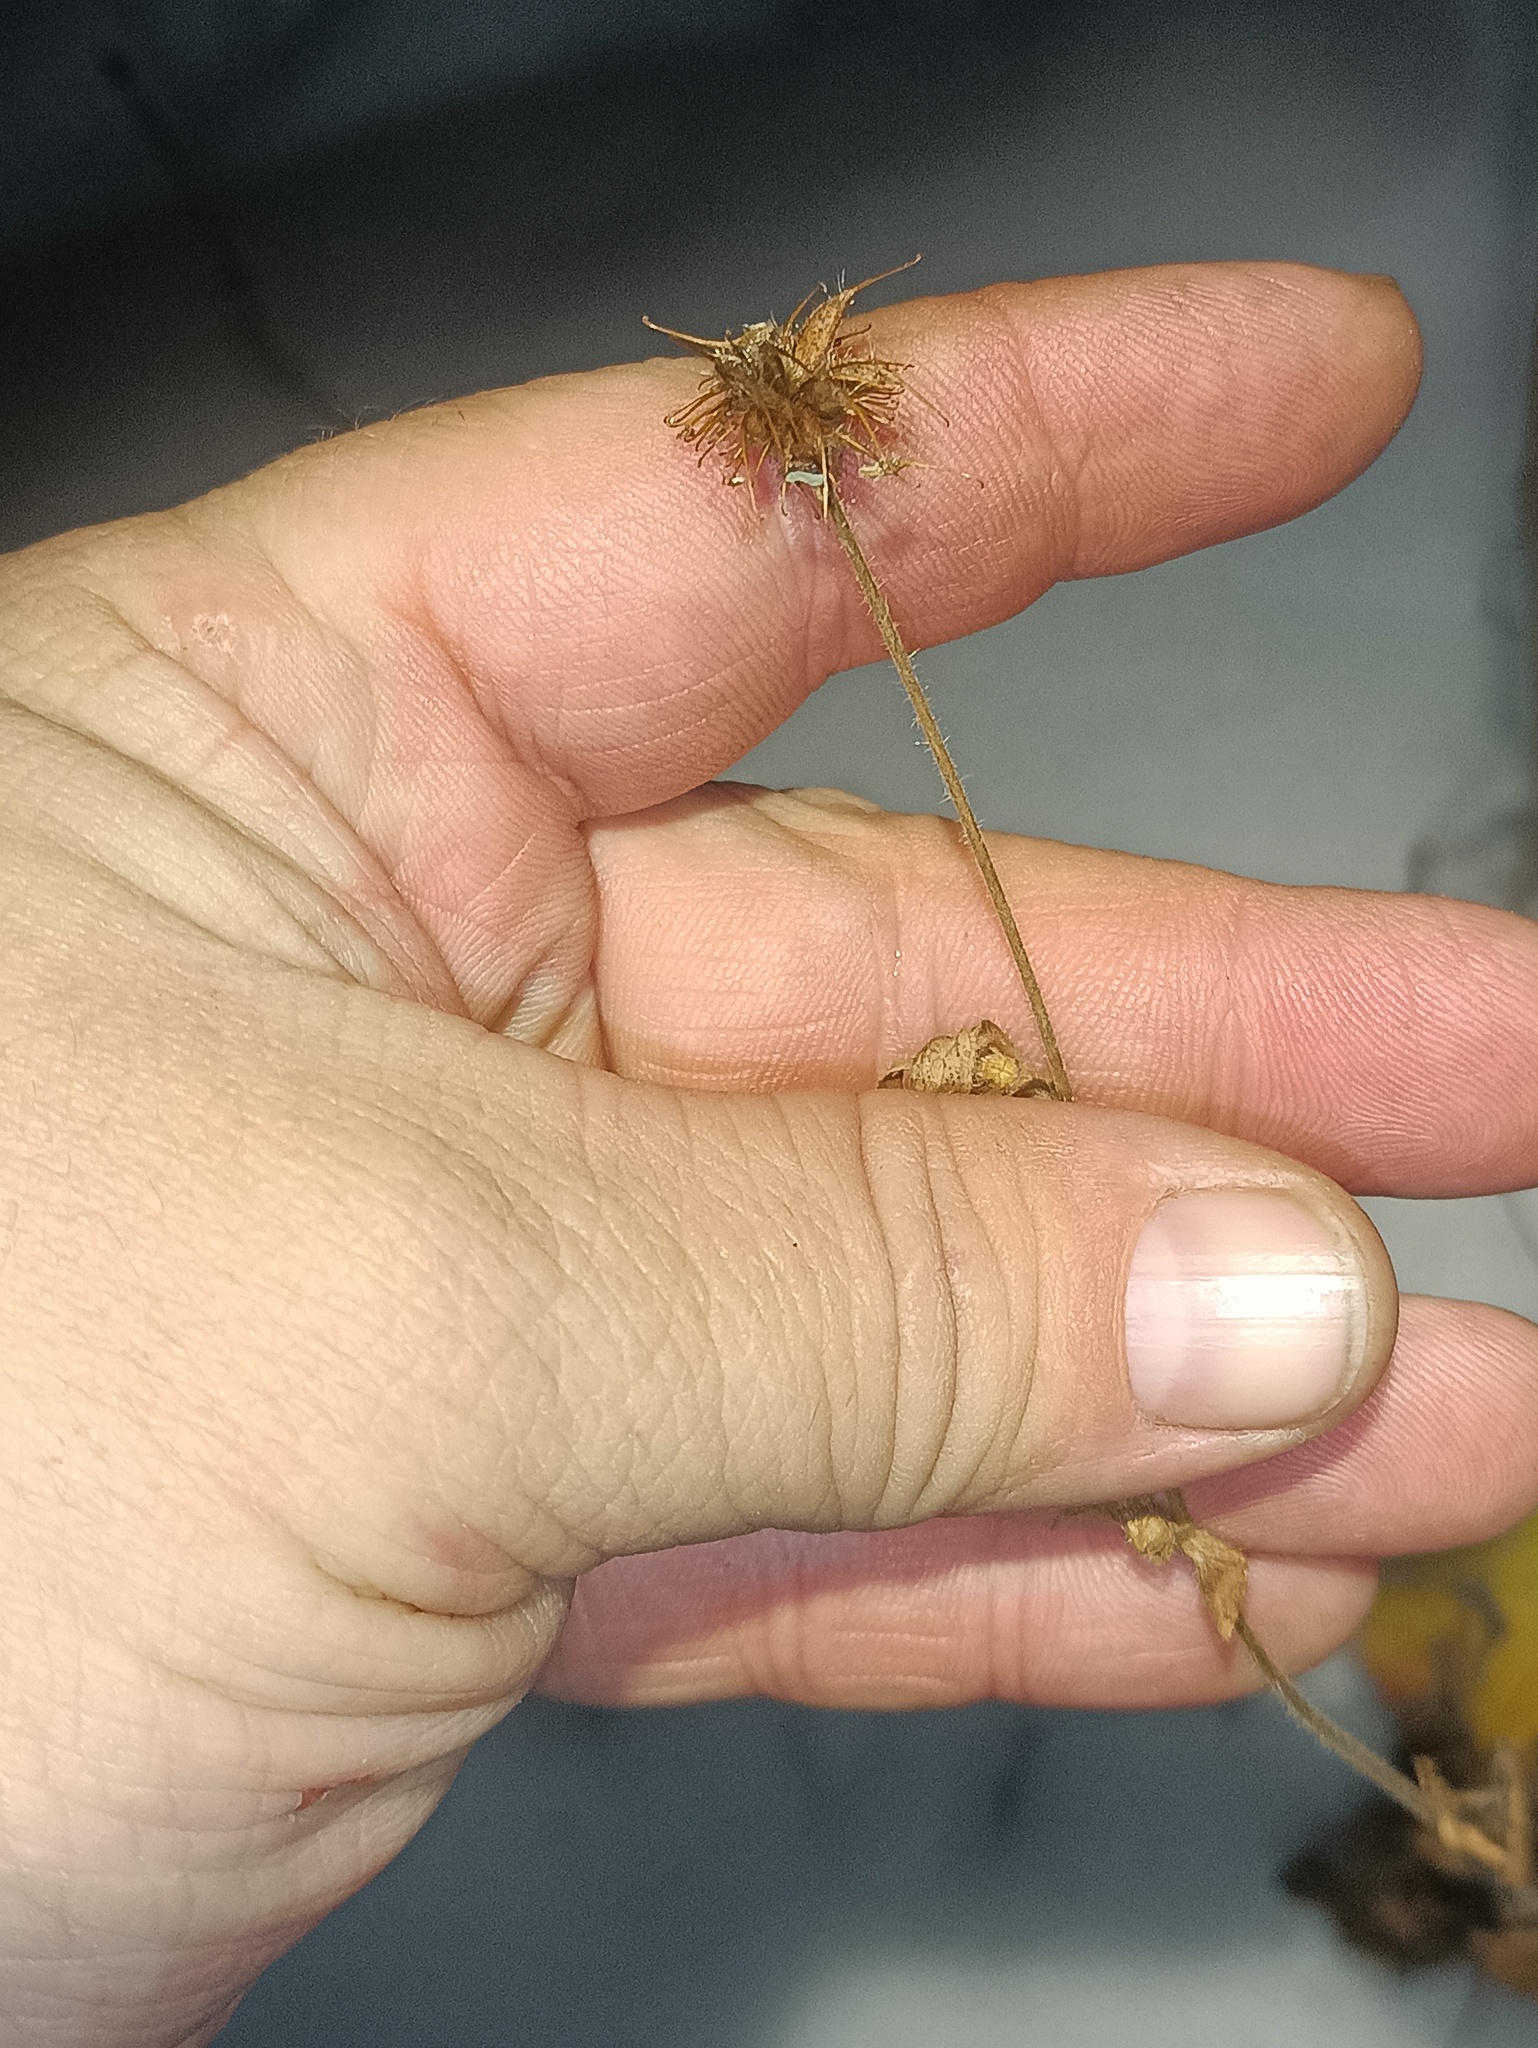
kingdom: Plantae
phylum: Tracheophyta
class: Magnoliopsida
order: Rosales
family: Rosaceae
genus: Geum
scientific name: Geum urbanum
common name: Wood avens
